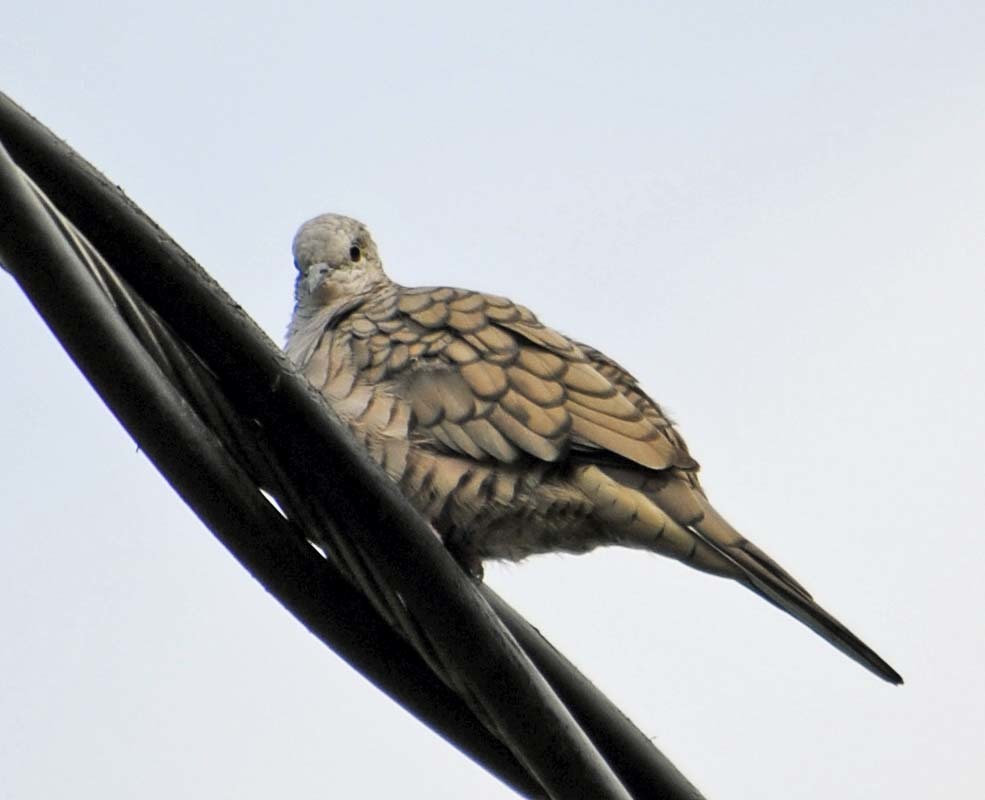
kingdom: Animalia
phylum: Chordata
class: Aves
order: Columbiformes
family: Columbidae
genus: Columbina
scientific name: Columbina inca
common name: Inca dove
